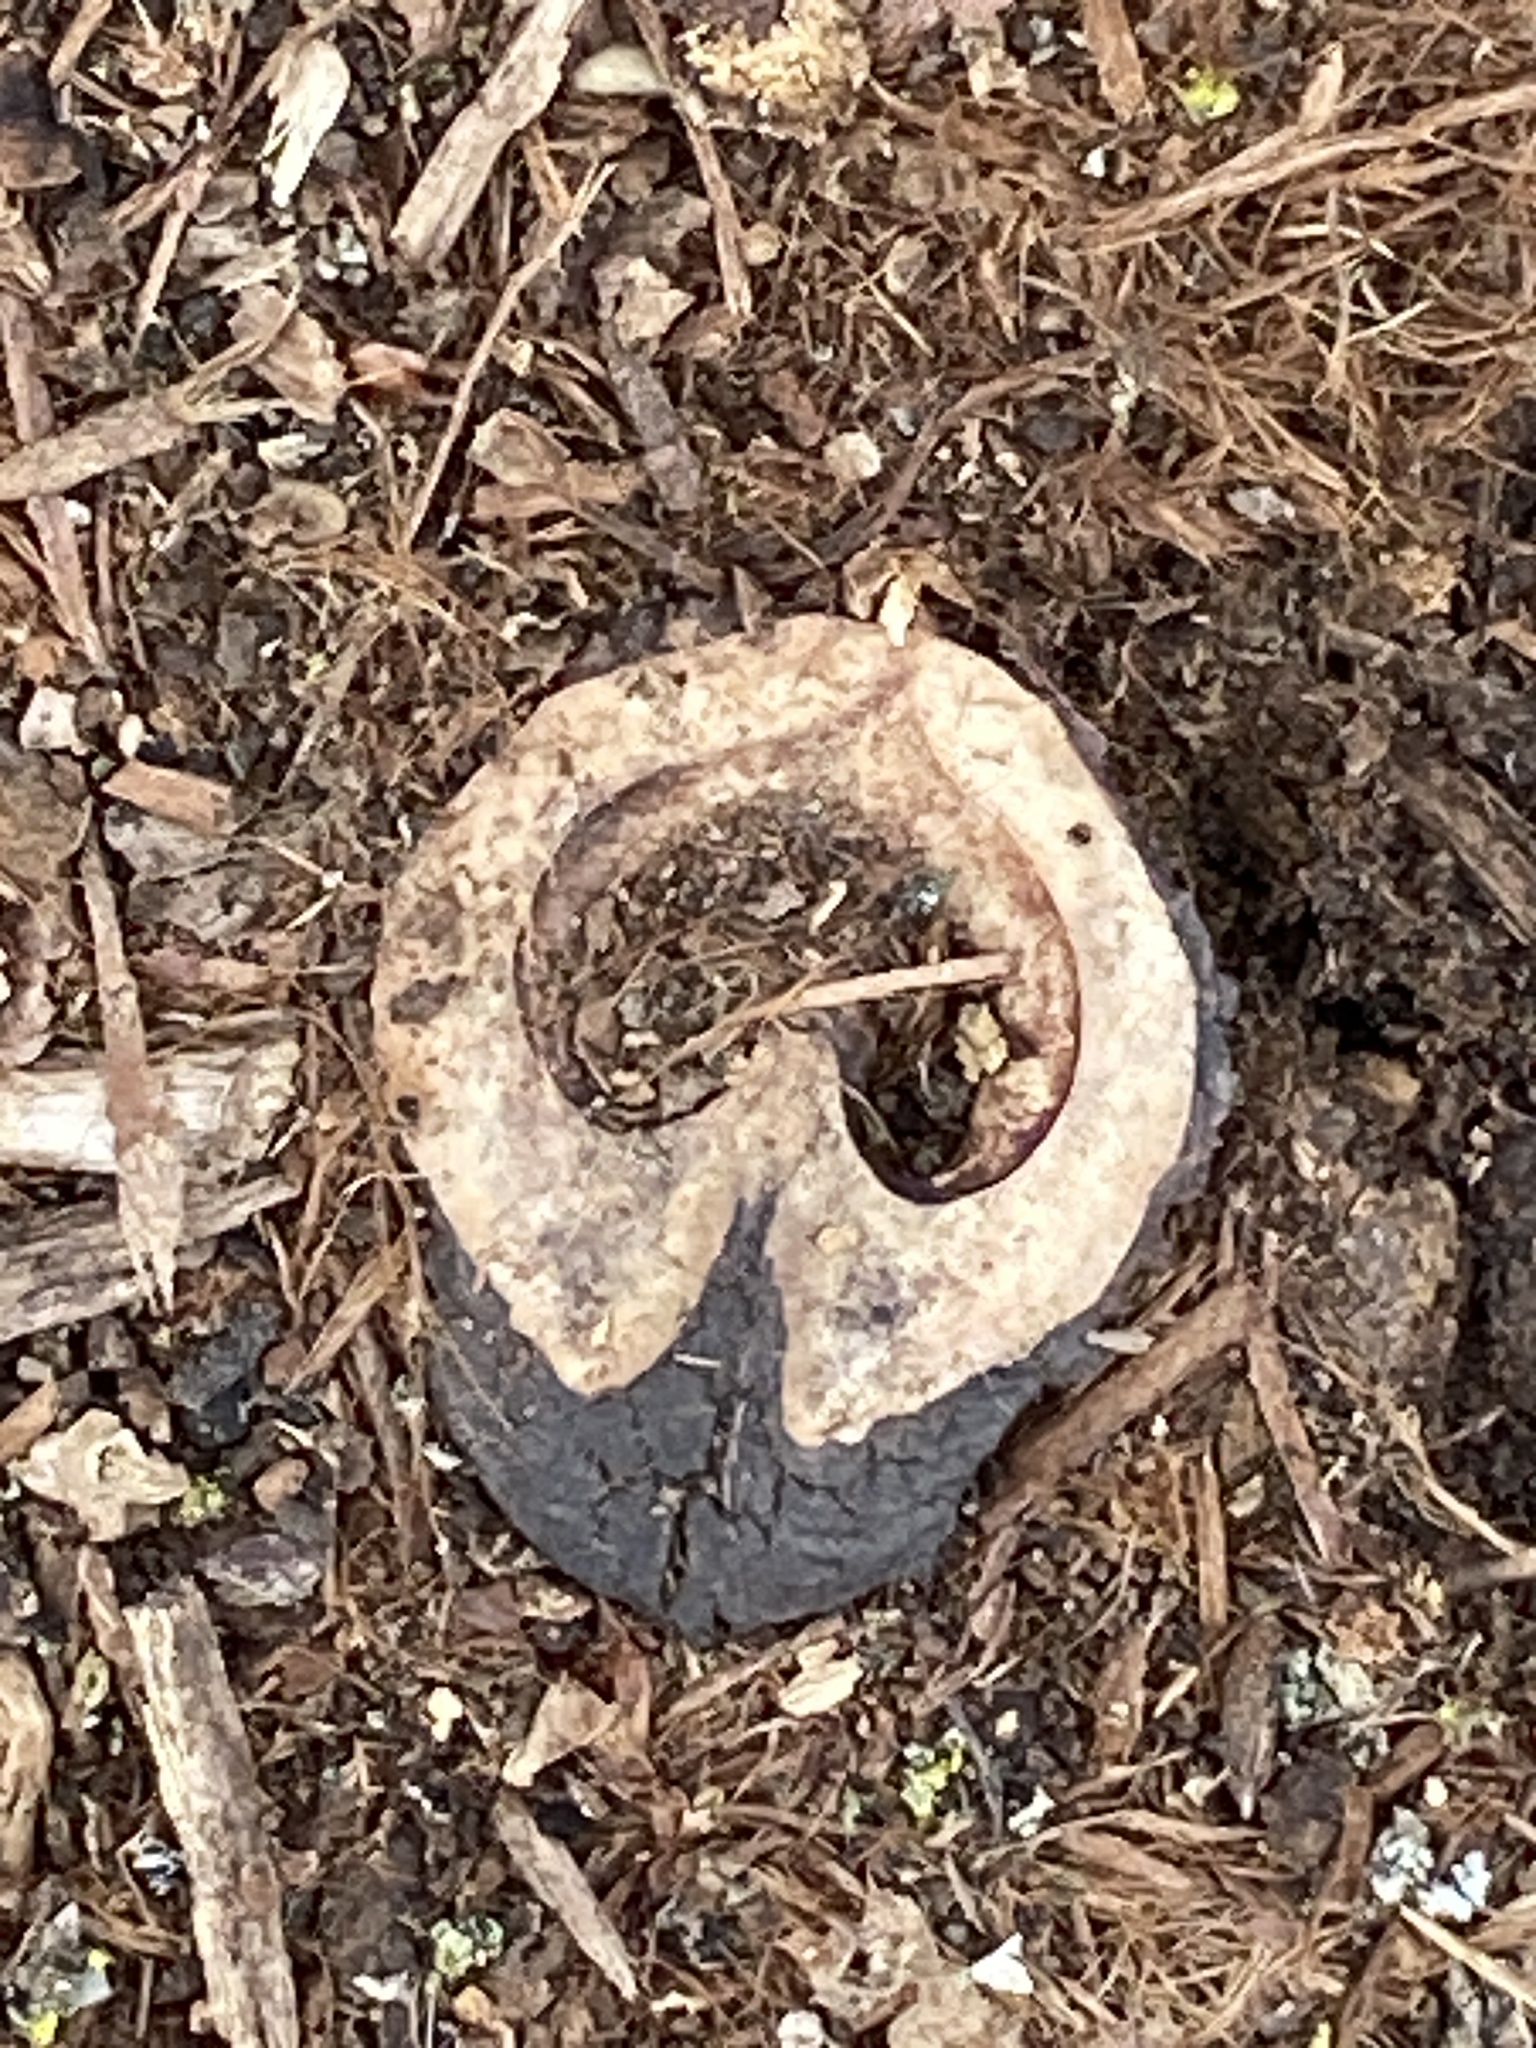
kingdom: Plantae
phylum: Tracheophyta
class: Magnoliopsida
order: Fagales
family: Juglandaceae
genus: Juglans
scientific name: Juglans nigra
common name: Black walnut
